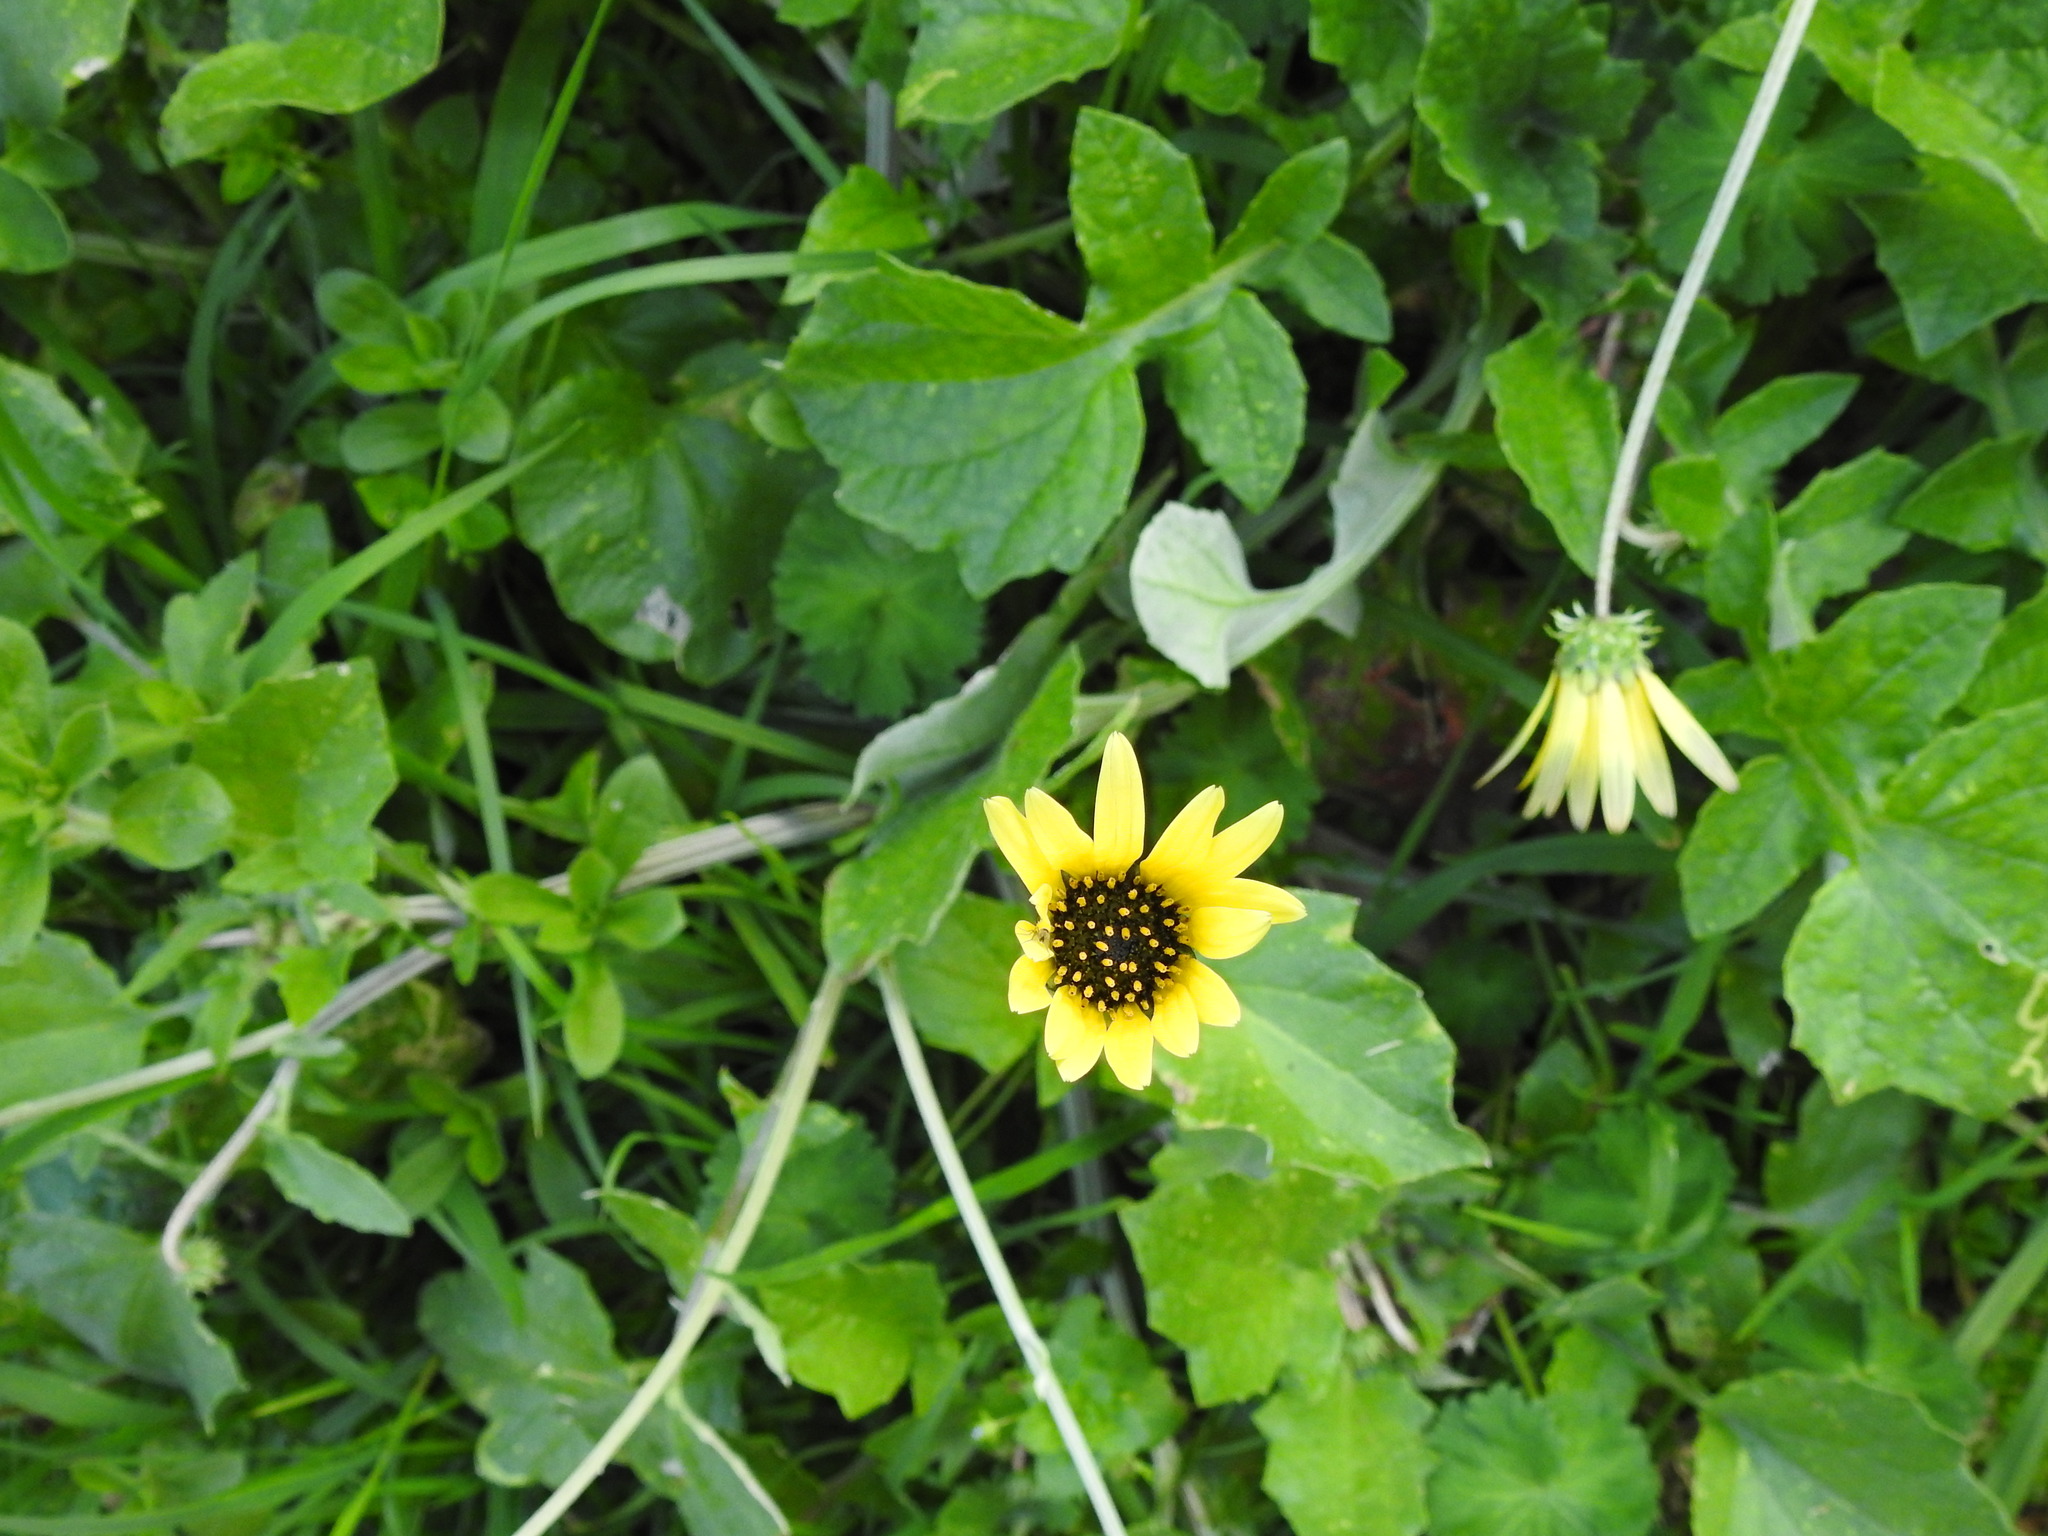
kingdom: Plantae
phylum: Tracheophyta
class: Magnoliopsida
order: Asterales
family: Asteraceae
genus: Arctotheca
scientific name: Arctotheca calendula
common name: Capeweed
